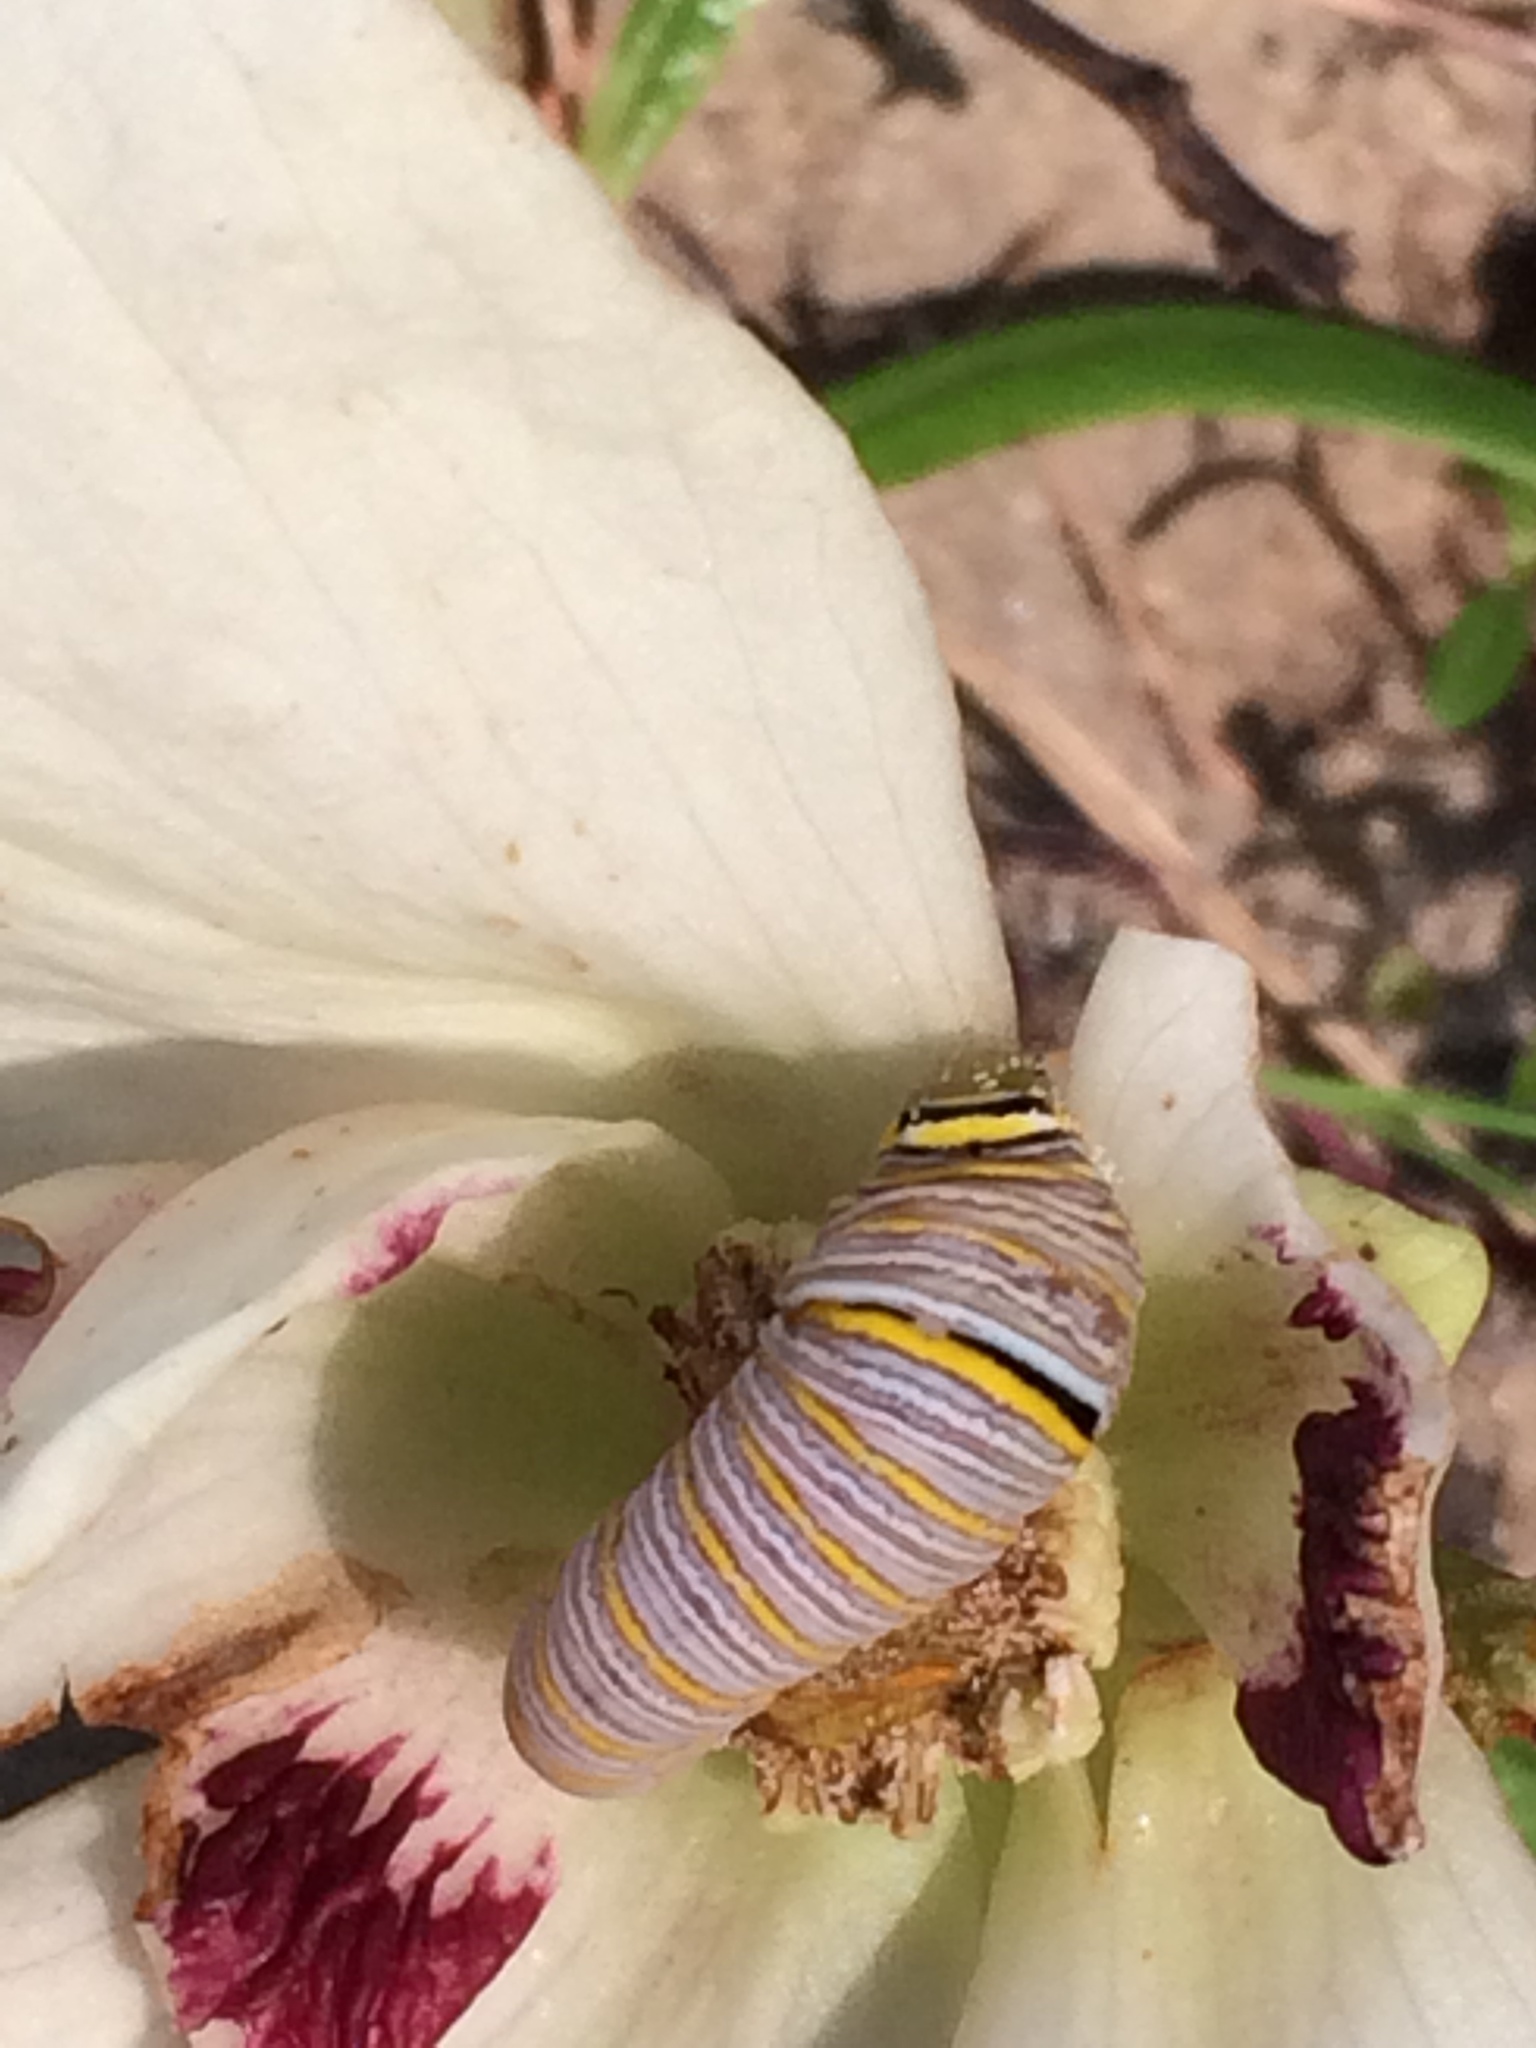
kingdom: Animalia
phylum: Arthropoda
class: Insecta
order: Lepidoptera
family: Papilionidae
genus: Protographium
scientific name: Protographium marcellus
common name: Zebra swallowtail
